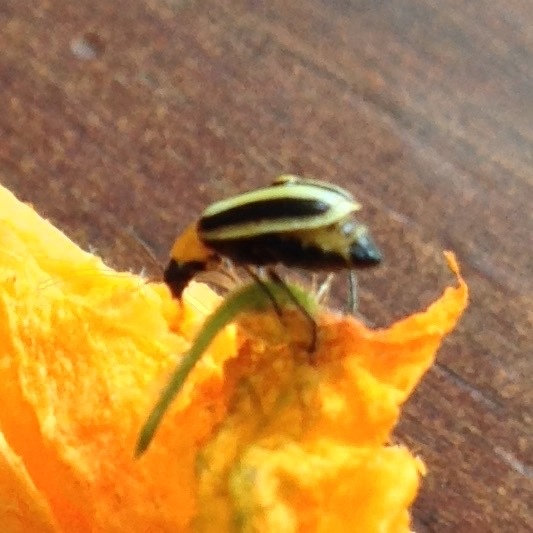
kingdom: Animalia
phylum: Arthropoda
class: Insecta
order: Coleoptera
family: Chrysomelidae
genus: Acalymma
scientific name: Acalymma trivittatum
